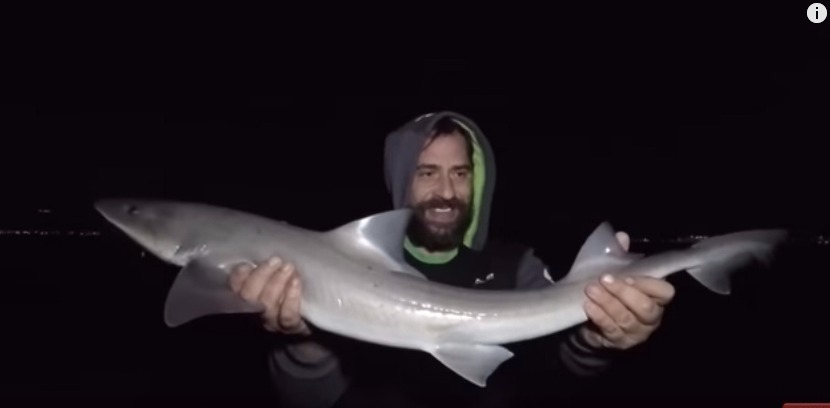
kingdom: Animalia
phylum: Chordata
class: Elasmobranchii
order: Carcharhiniformes
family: Triakidae
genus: Mustelus
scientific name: Mustelus mustelus
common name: Smooth-hound
